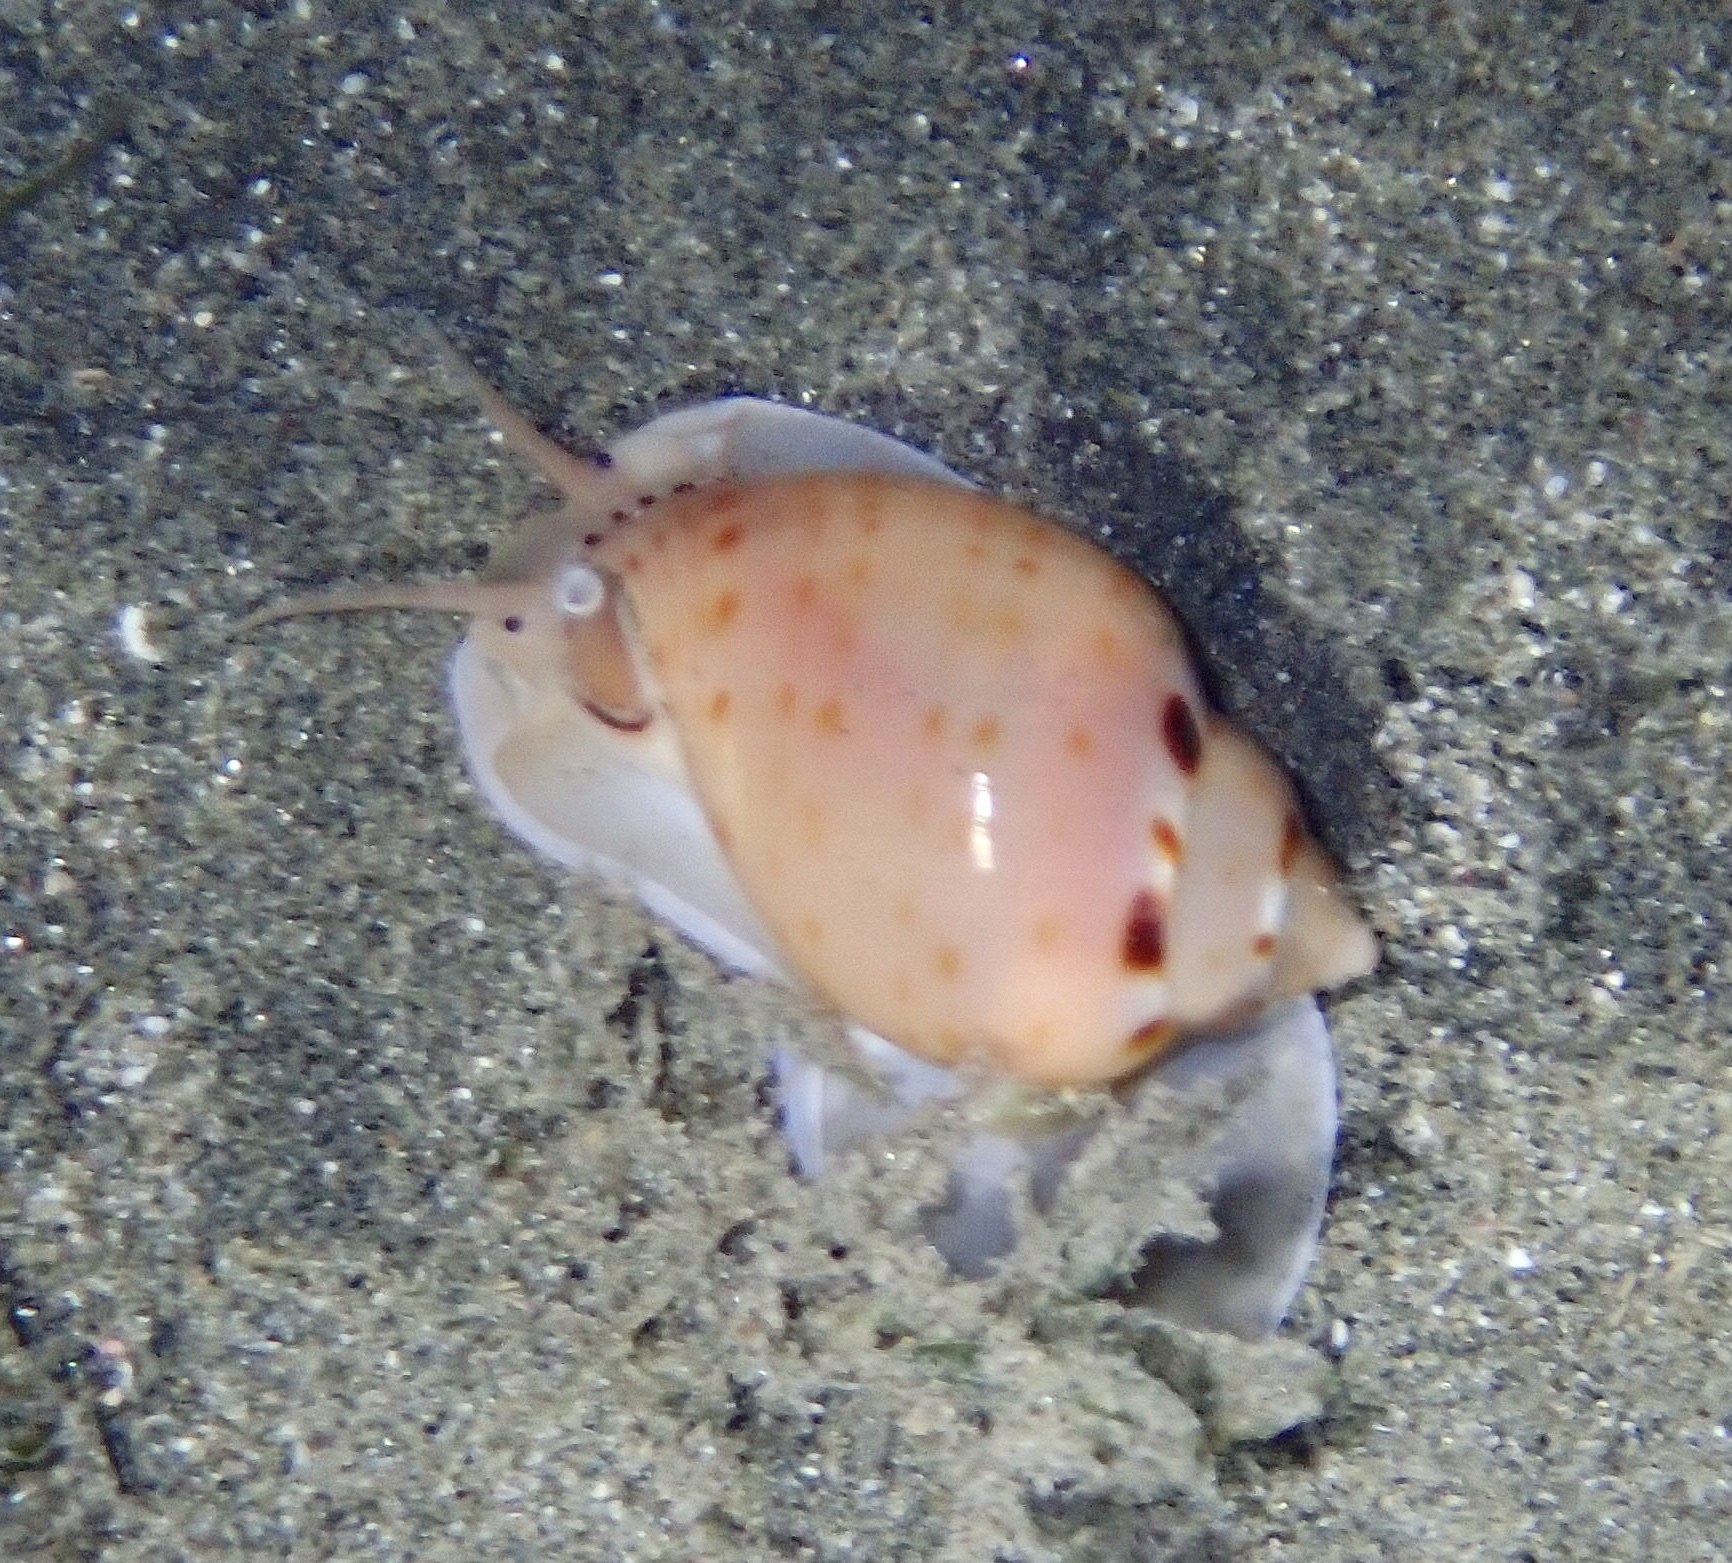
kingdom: Animalia
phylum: Mollusca
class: Gastropoda
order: Littorinimorpha
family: Cassidae
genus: Casmaria
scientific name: Casmaria unicolor
